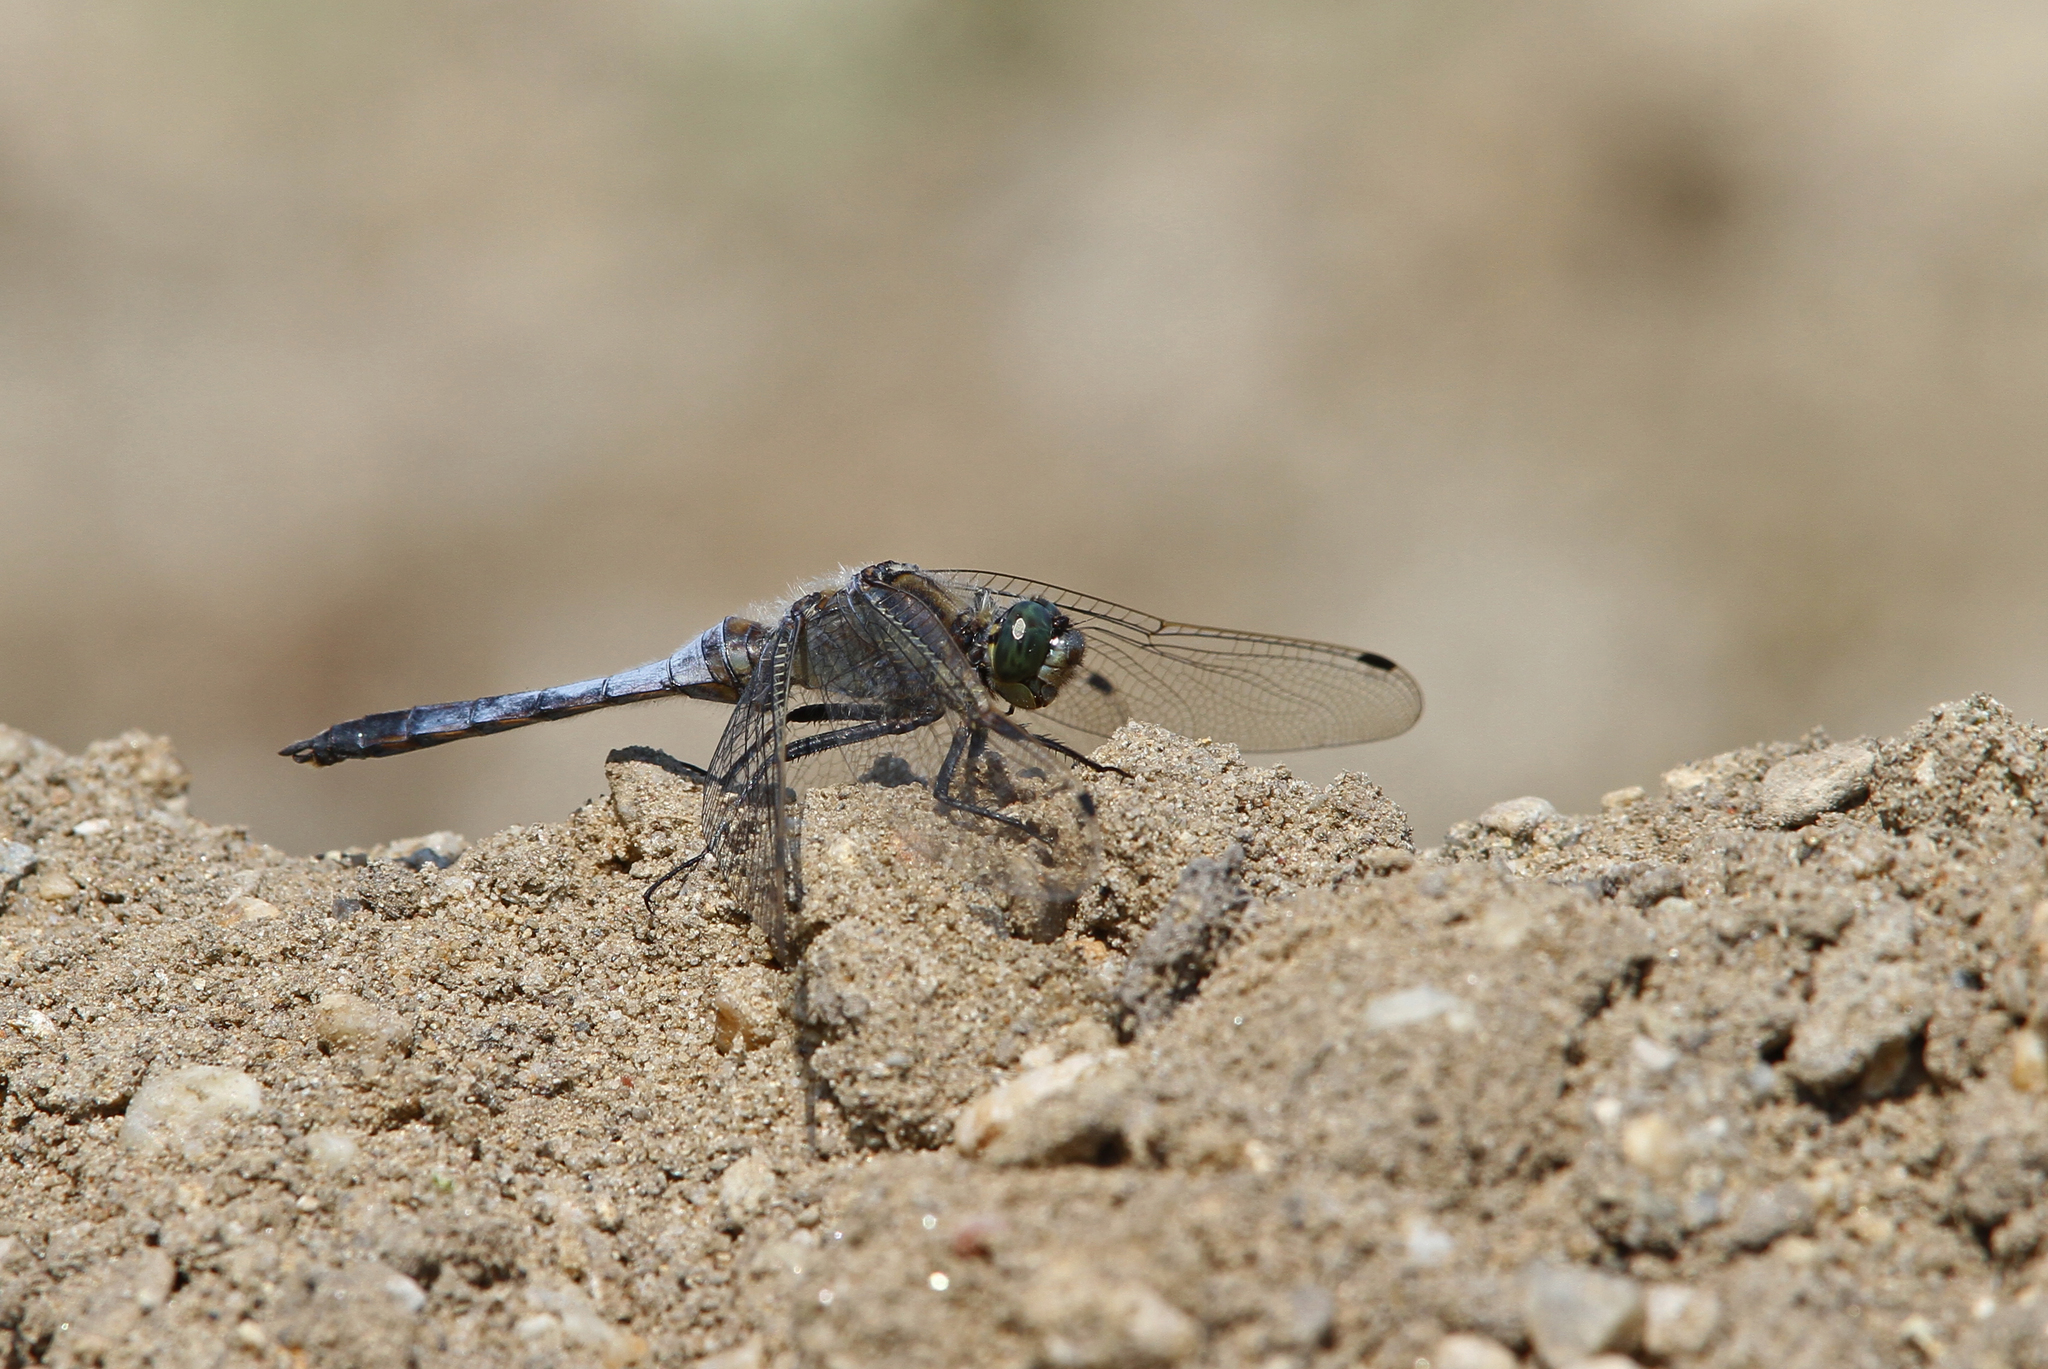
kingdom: Animalia
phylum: Arthropoda
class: Insecta
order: Odonata
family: Libellulidae
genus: Orthetrum
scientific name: Orthetrum cancellatum
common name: Black-tailed skimmer
